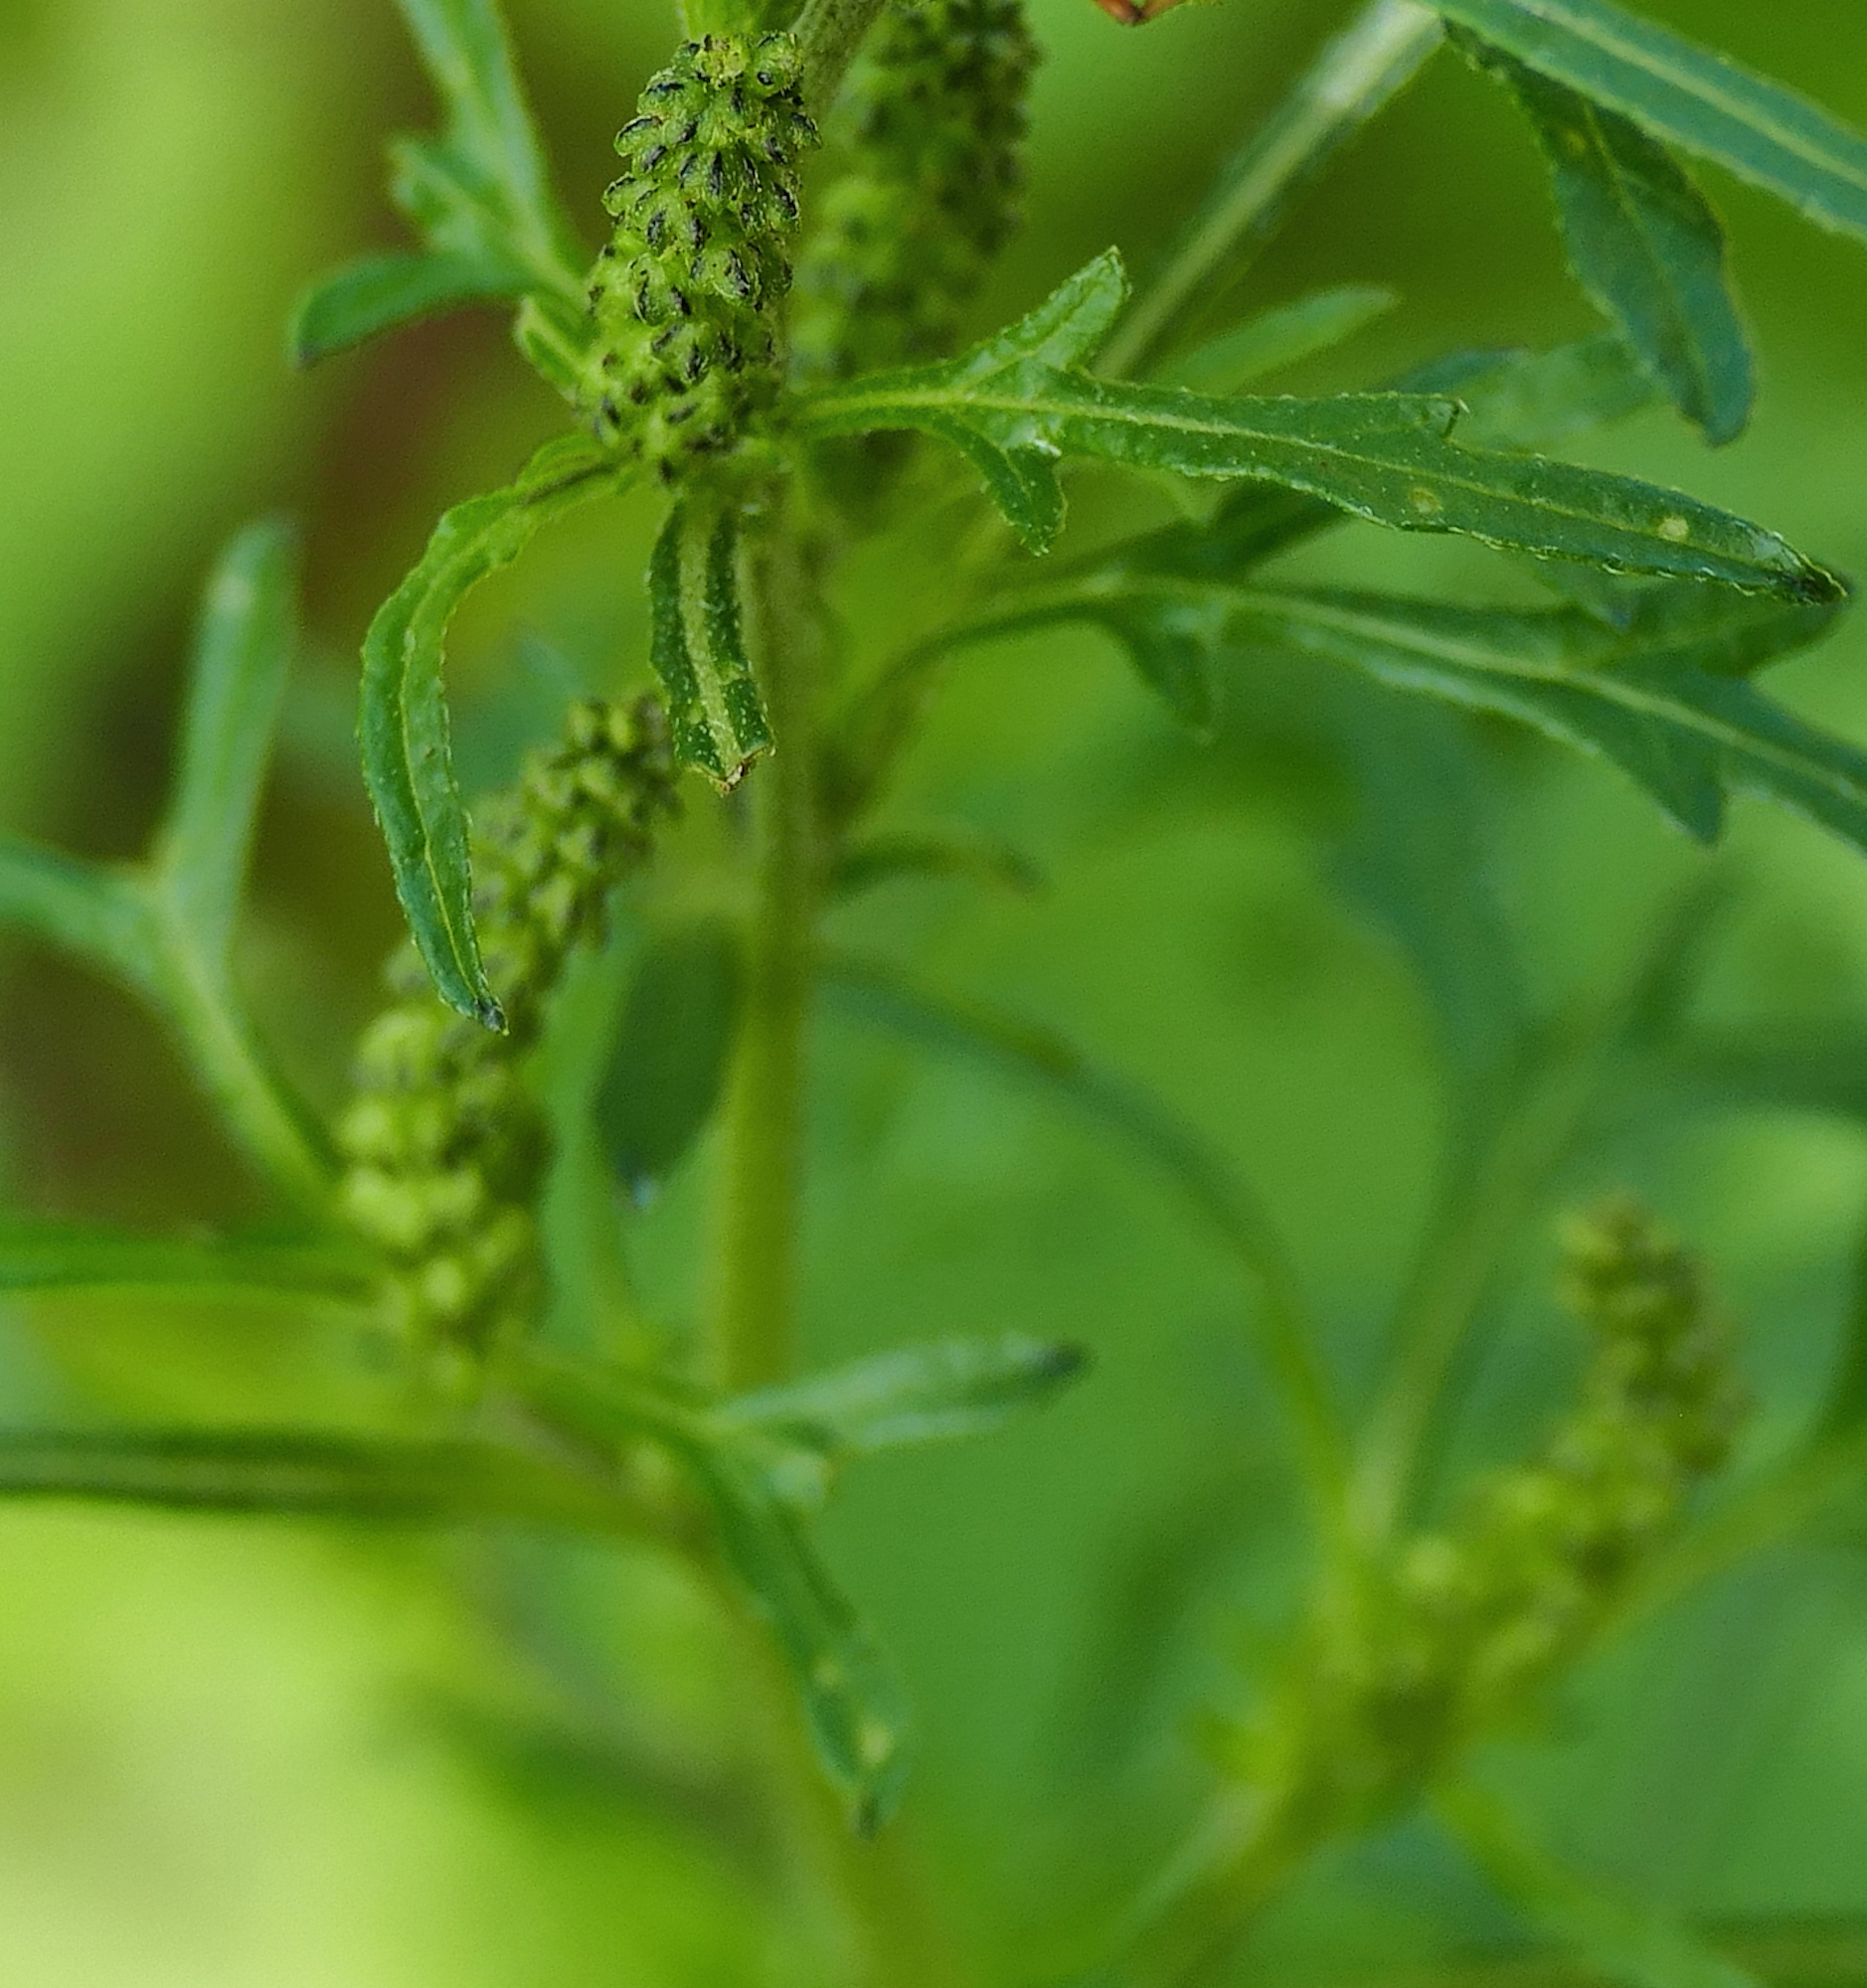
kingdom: Plantae
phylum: Tracheophyta
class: Magnoliopsida
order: Asterales
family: Asteraceae
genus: Ambrosia
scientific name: Ambrosia acanthicarpa
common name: Hooker's bur ragweed
